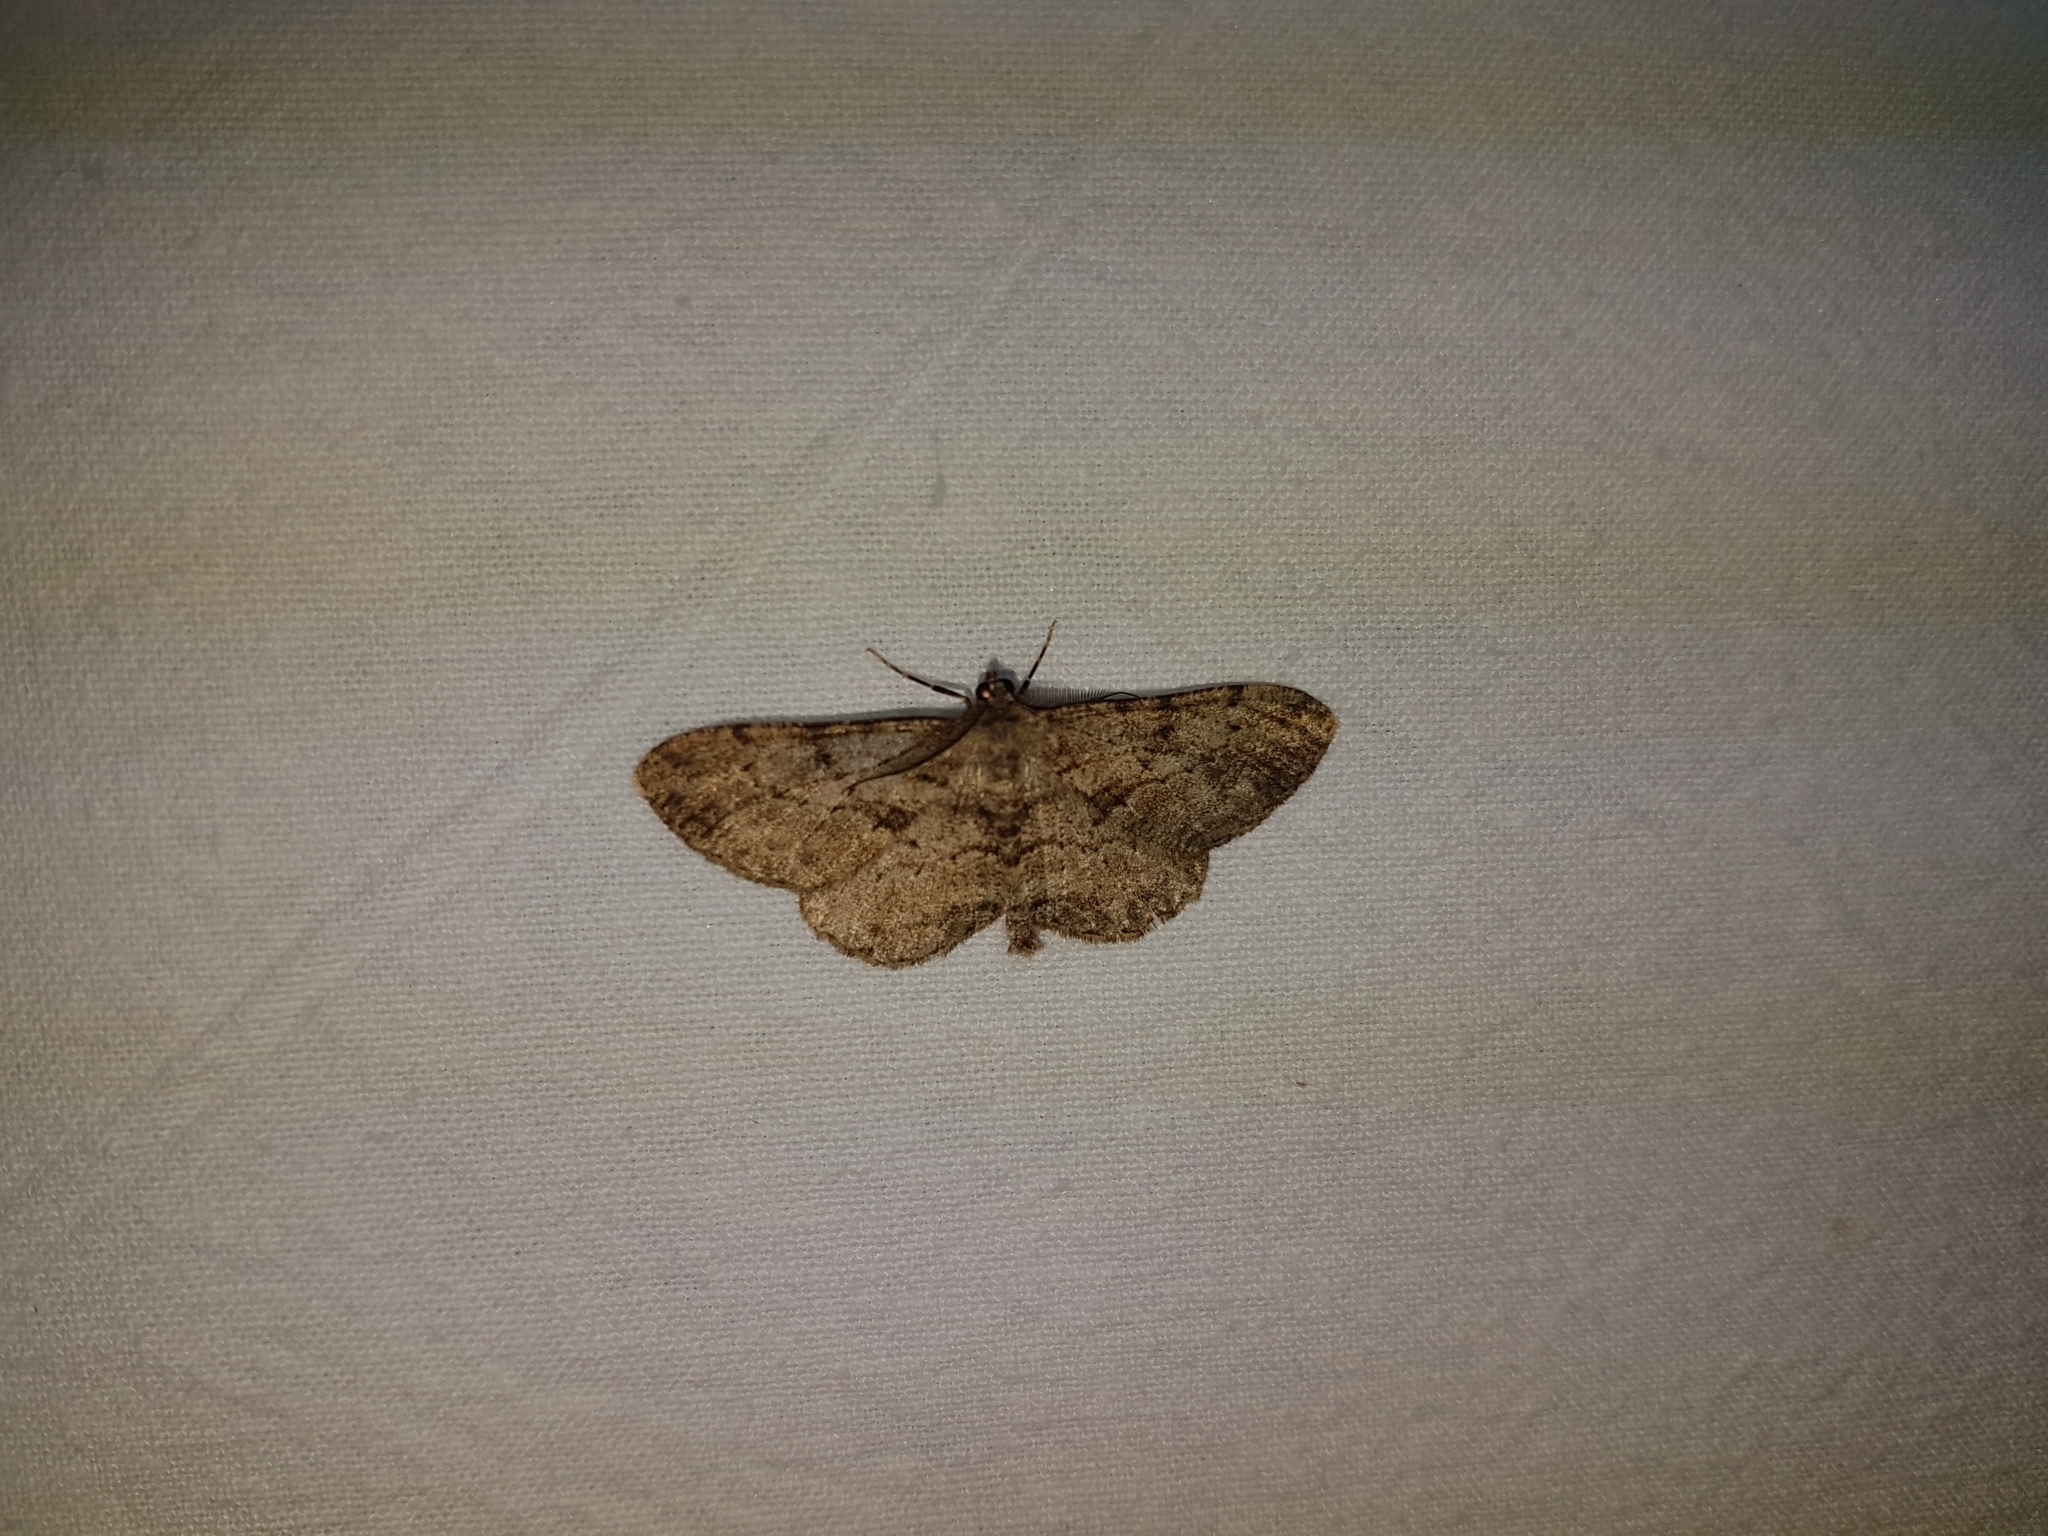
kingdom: Animalia
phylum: Arthropoda
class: Insecta
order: Lepidoptera
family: Geometridae
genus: Peribatodes
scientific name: Peribatodes rhomboidaria
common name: Willow beauty
